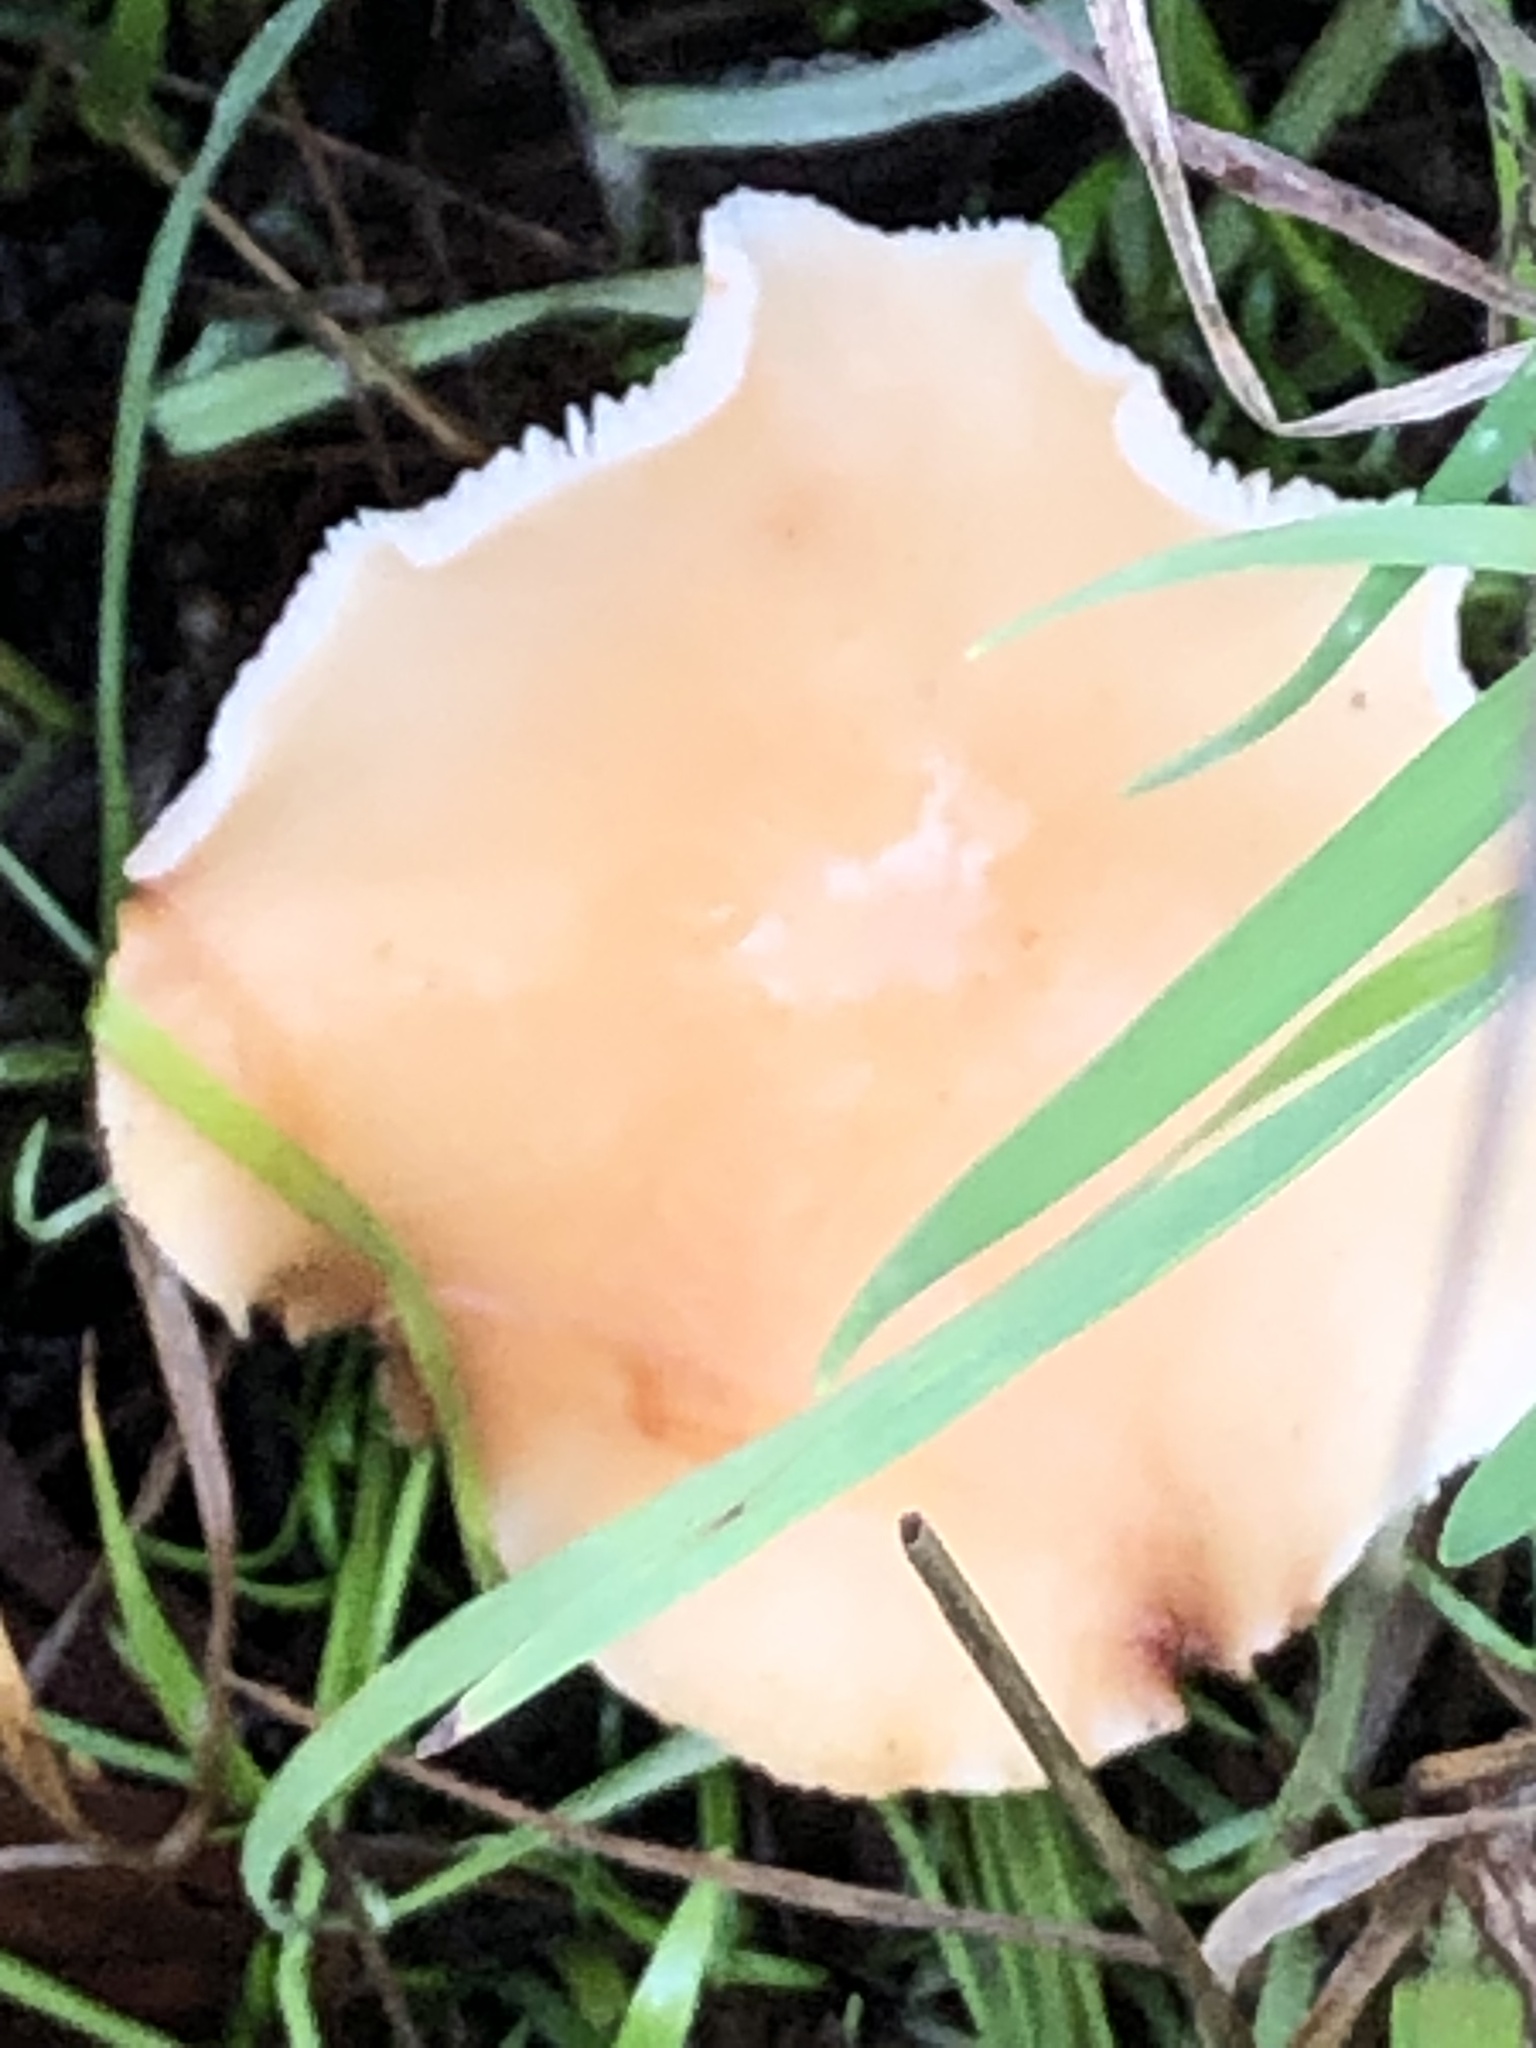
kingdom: Fungi
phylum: Basidiomycota
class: Agaricomycetes
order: Agaricales
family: Omphalotaceae
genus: Gymnopus
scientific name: Gymnopus dryophilus
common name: Penny top
